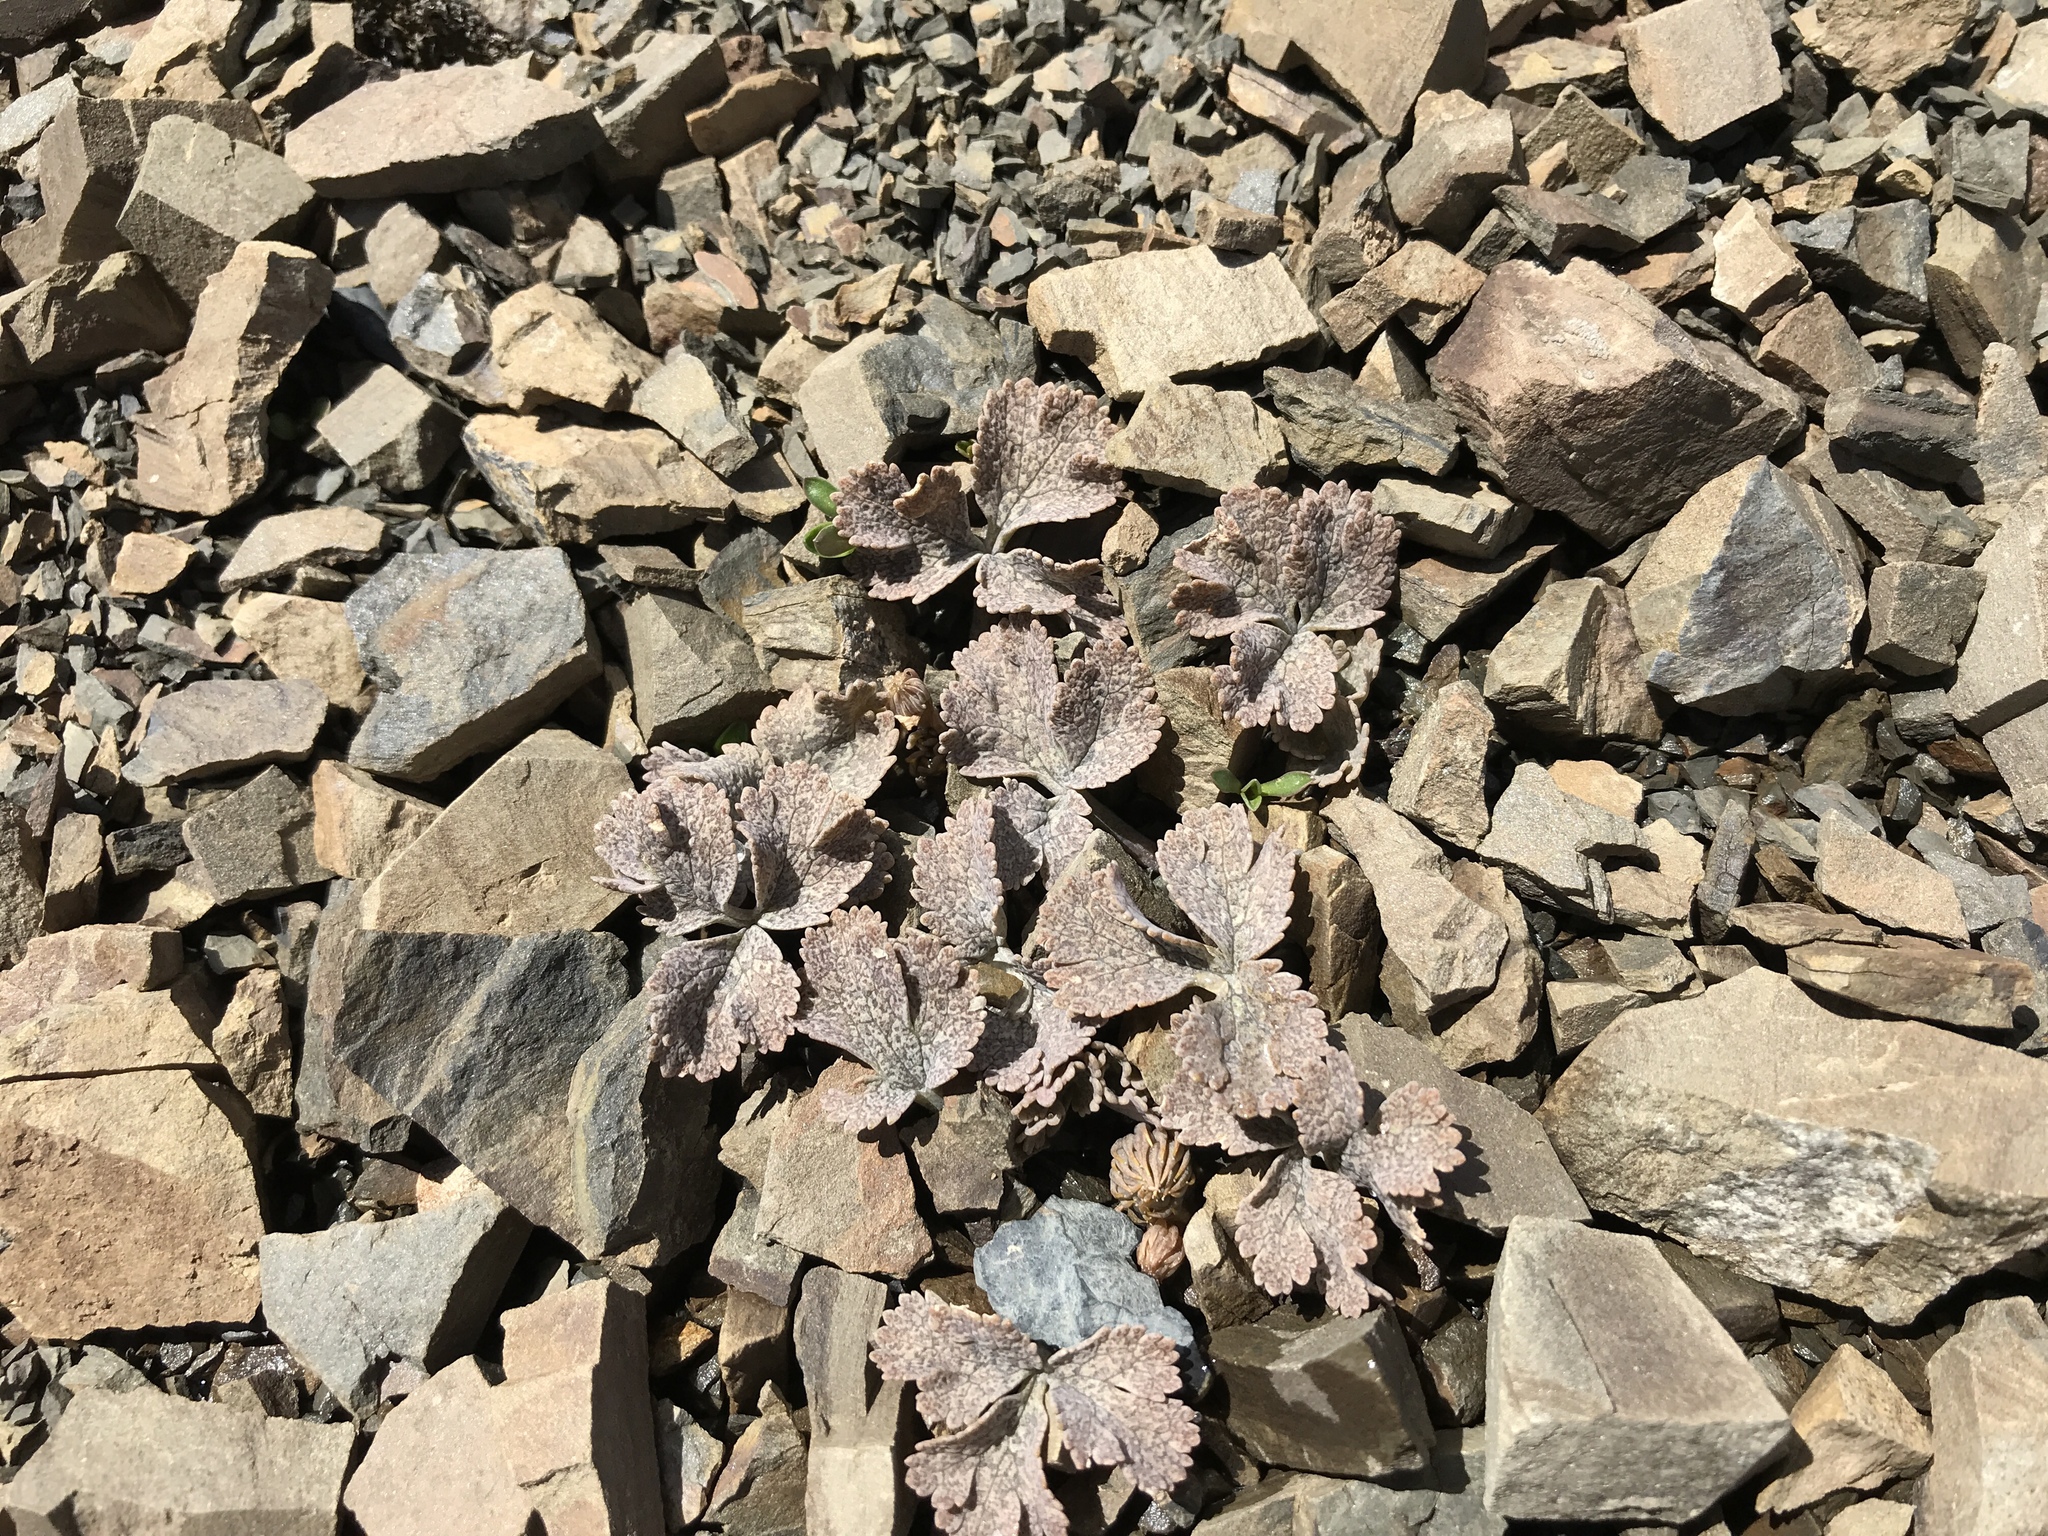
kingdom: Plantae
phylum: Tracheophyta
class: Magnoliopsida
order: Ranunculales
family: Ranunculaceae
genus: Ranunculus
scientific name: Ranunculus crithmifolius
